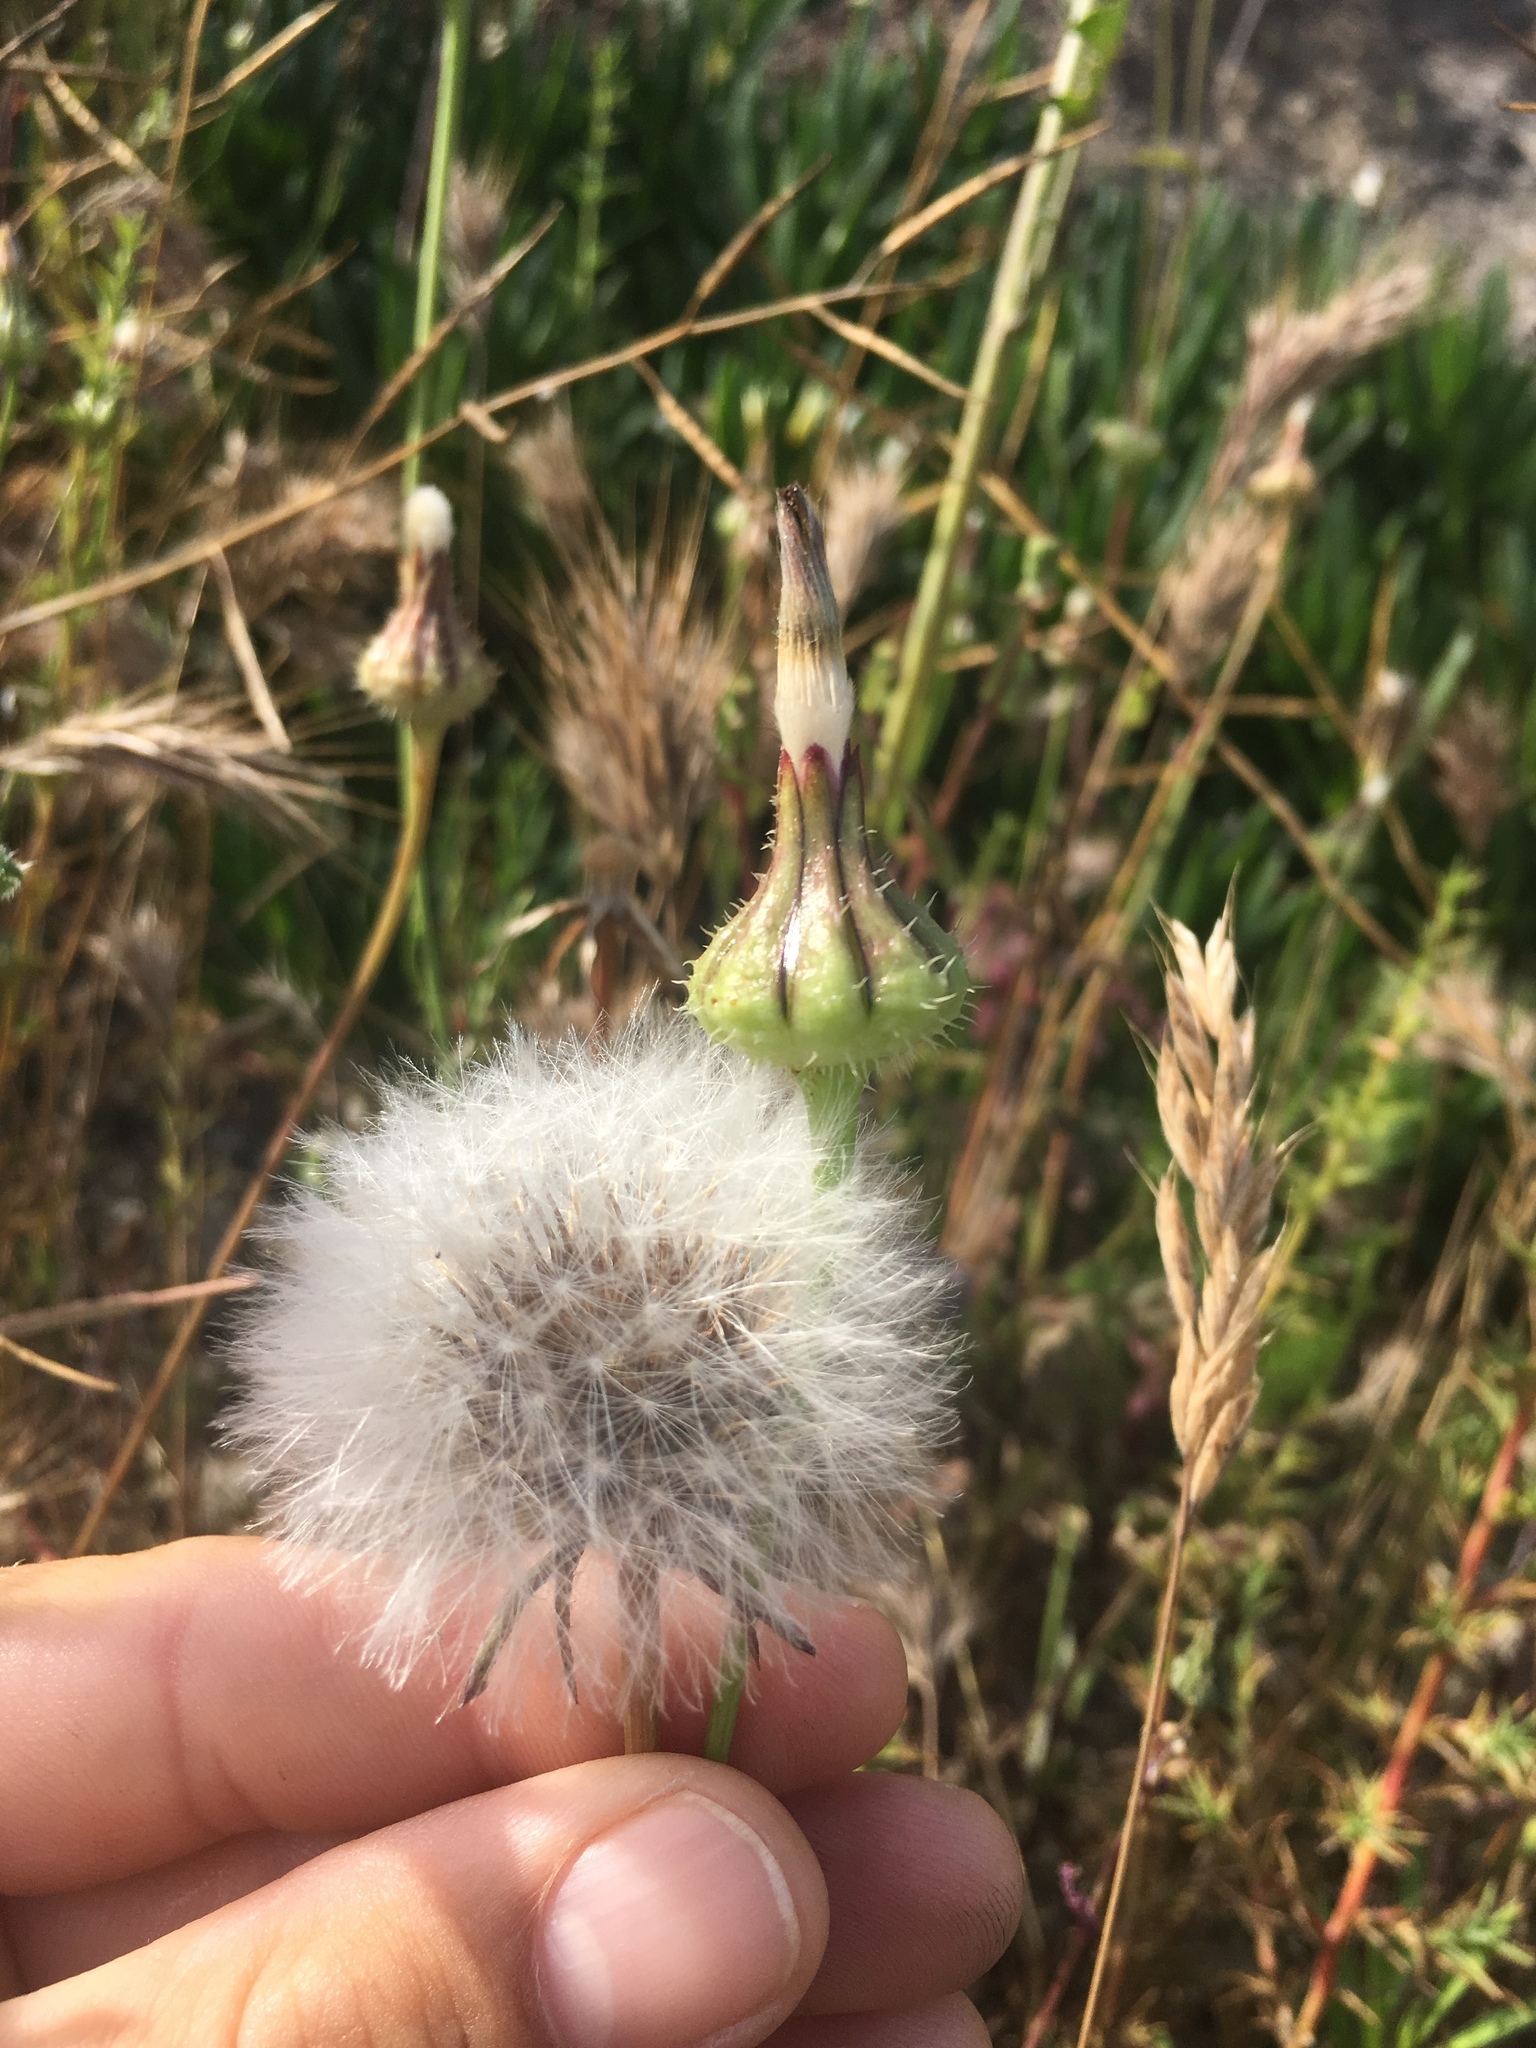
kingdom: Plantae
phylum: Tracheophyta
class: Magnoliopsida
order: Asterales
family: Asteraceae
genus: Urospermum
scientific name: Urospermum picroides
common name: False hawkbit
